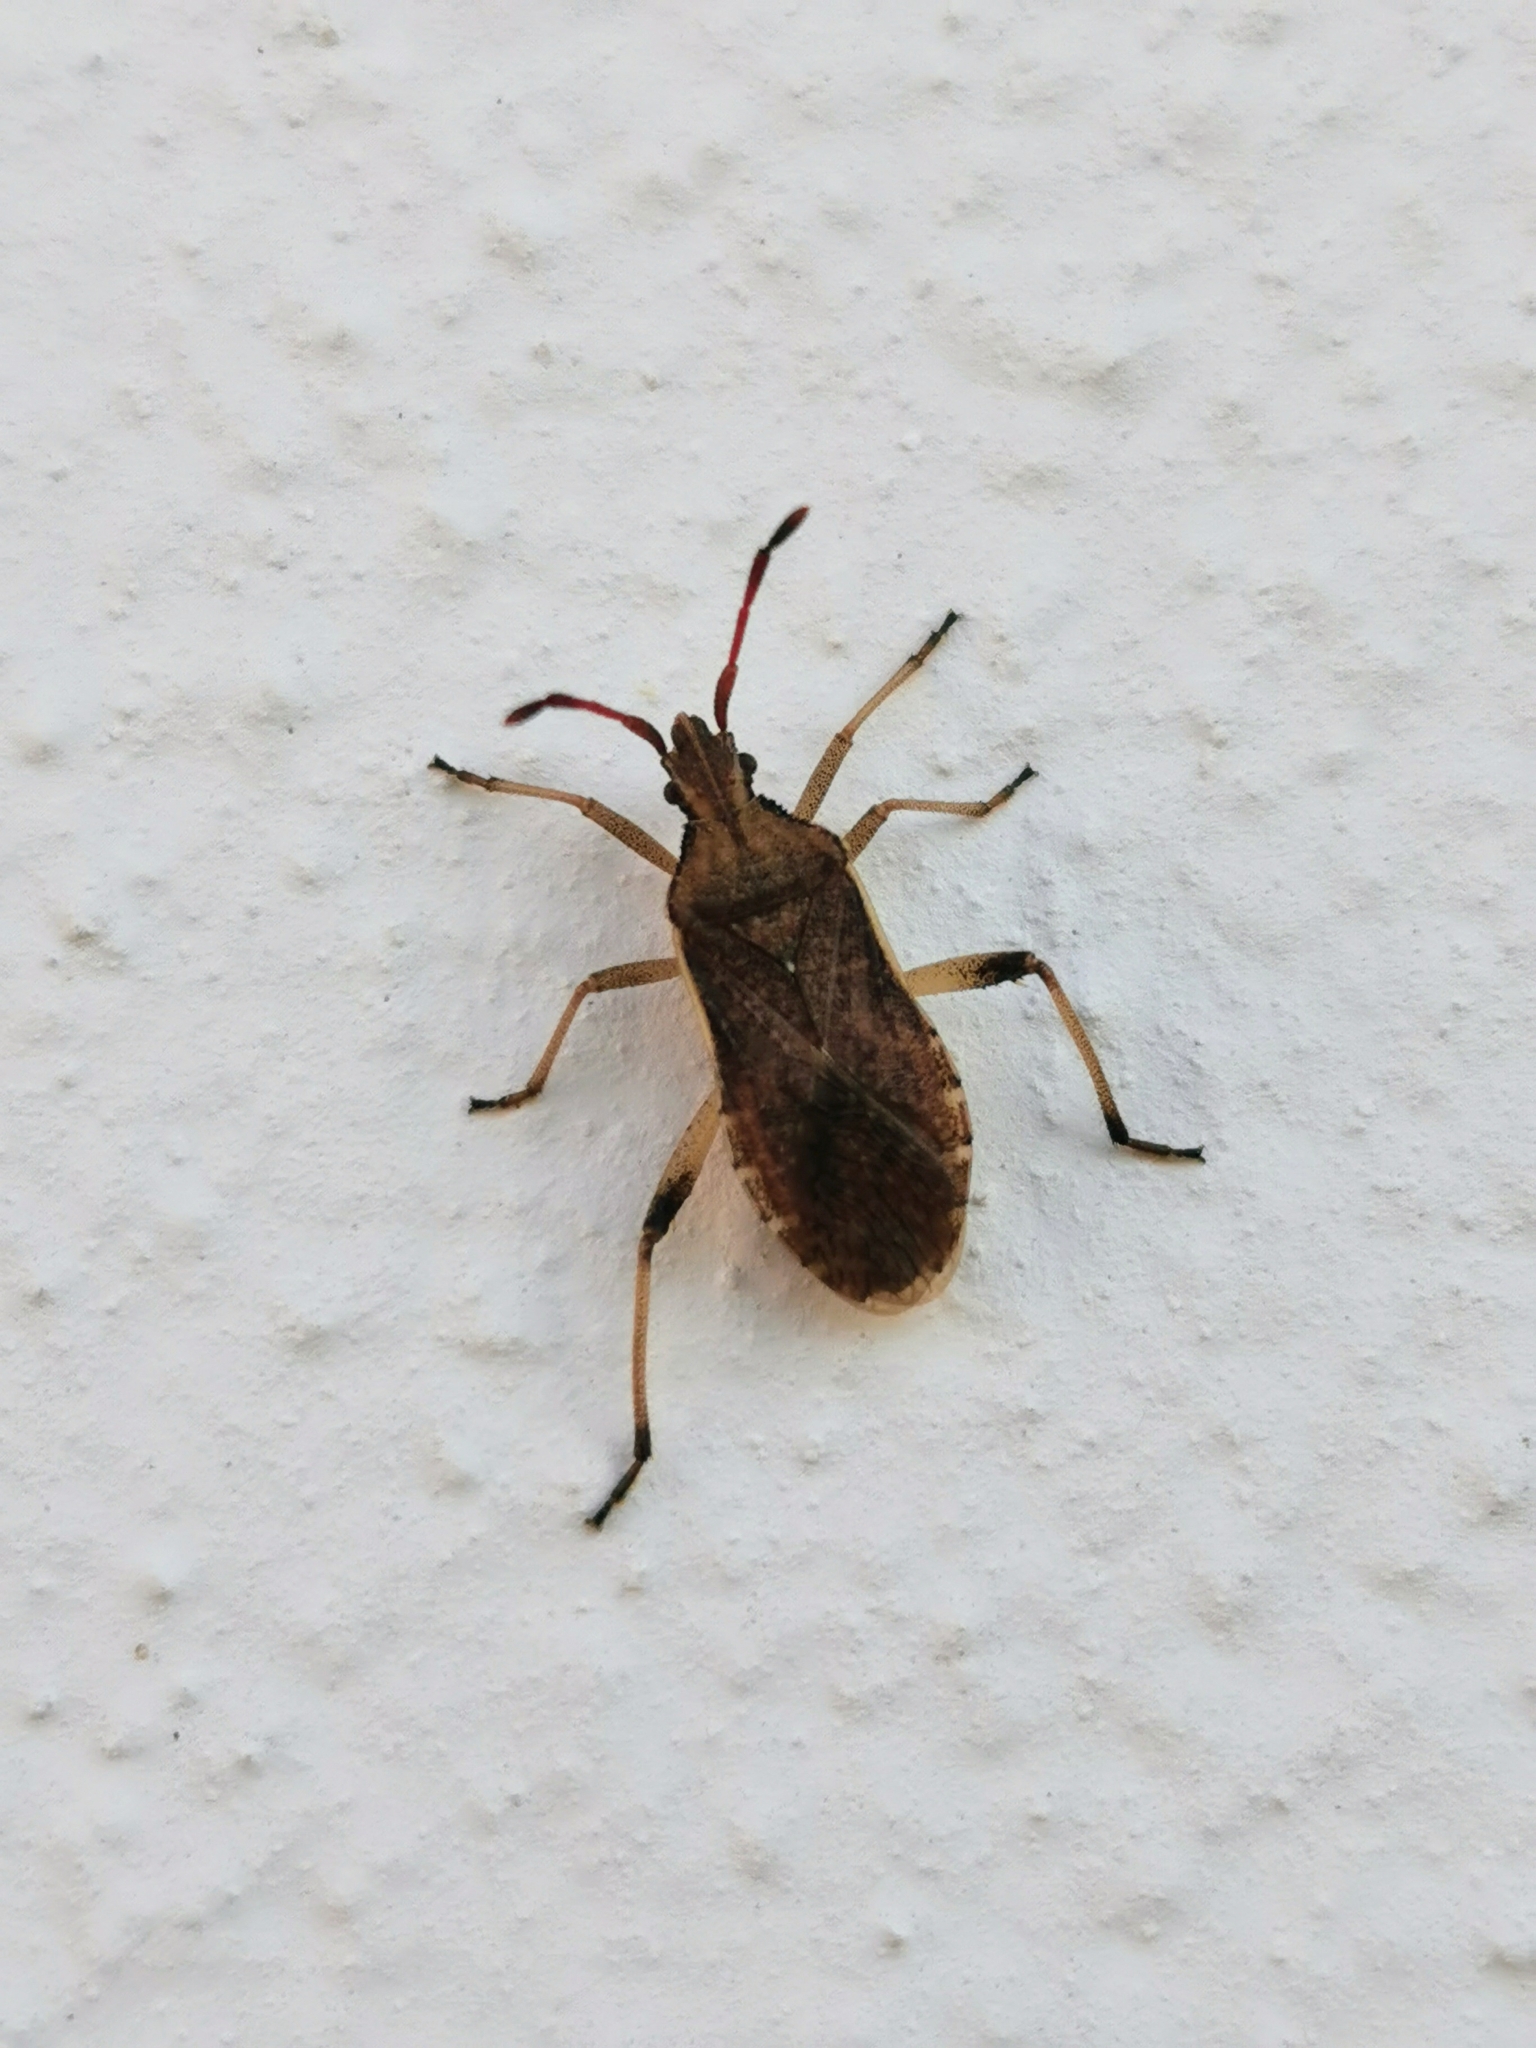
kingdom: Animalia
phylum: Arthropoda
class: Insecta
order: Hemiptera
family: Coreidae
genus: Ceraleptus
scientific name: Ceraleptus lividus
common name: Slender-horned leatherbug
